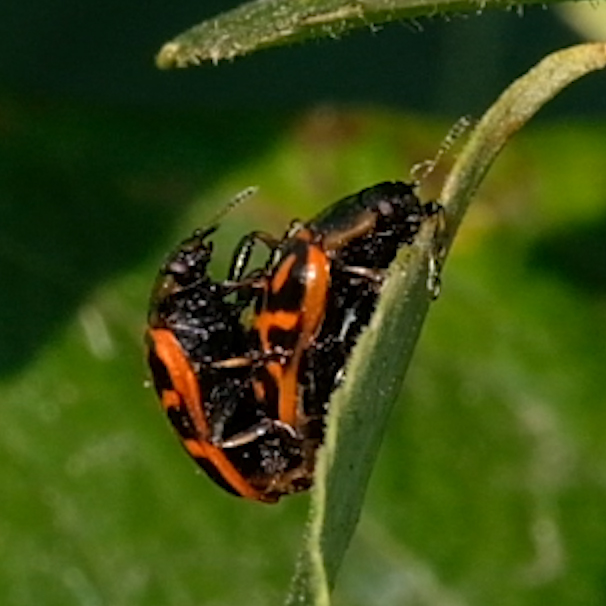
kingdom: Animalia
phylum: Arthropoda
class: Insecta
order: Coleoptera
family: Chrysomelidae
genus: Chrysomela
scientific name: Chrysomela falsa
